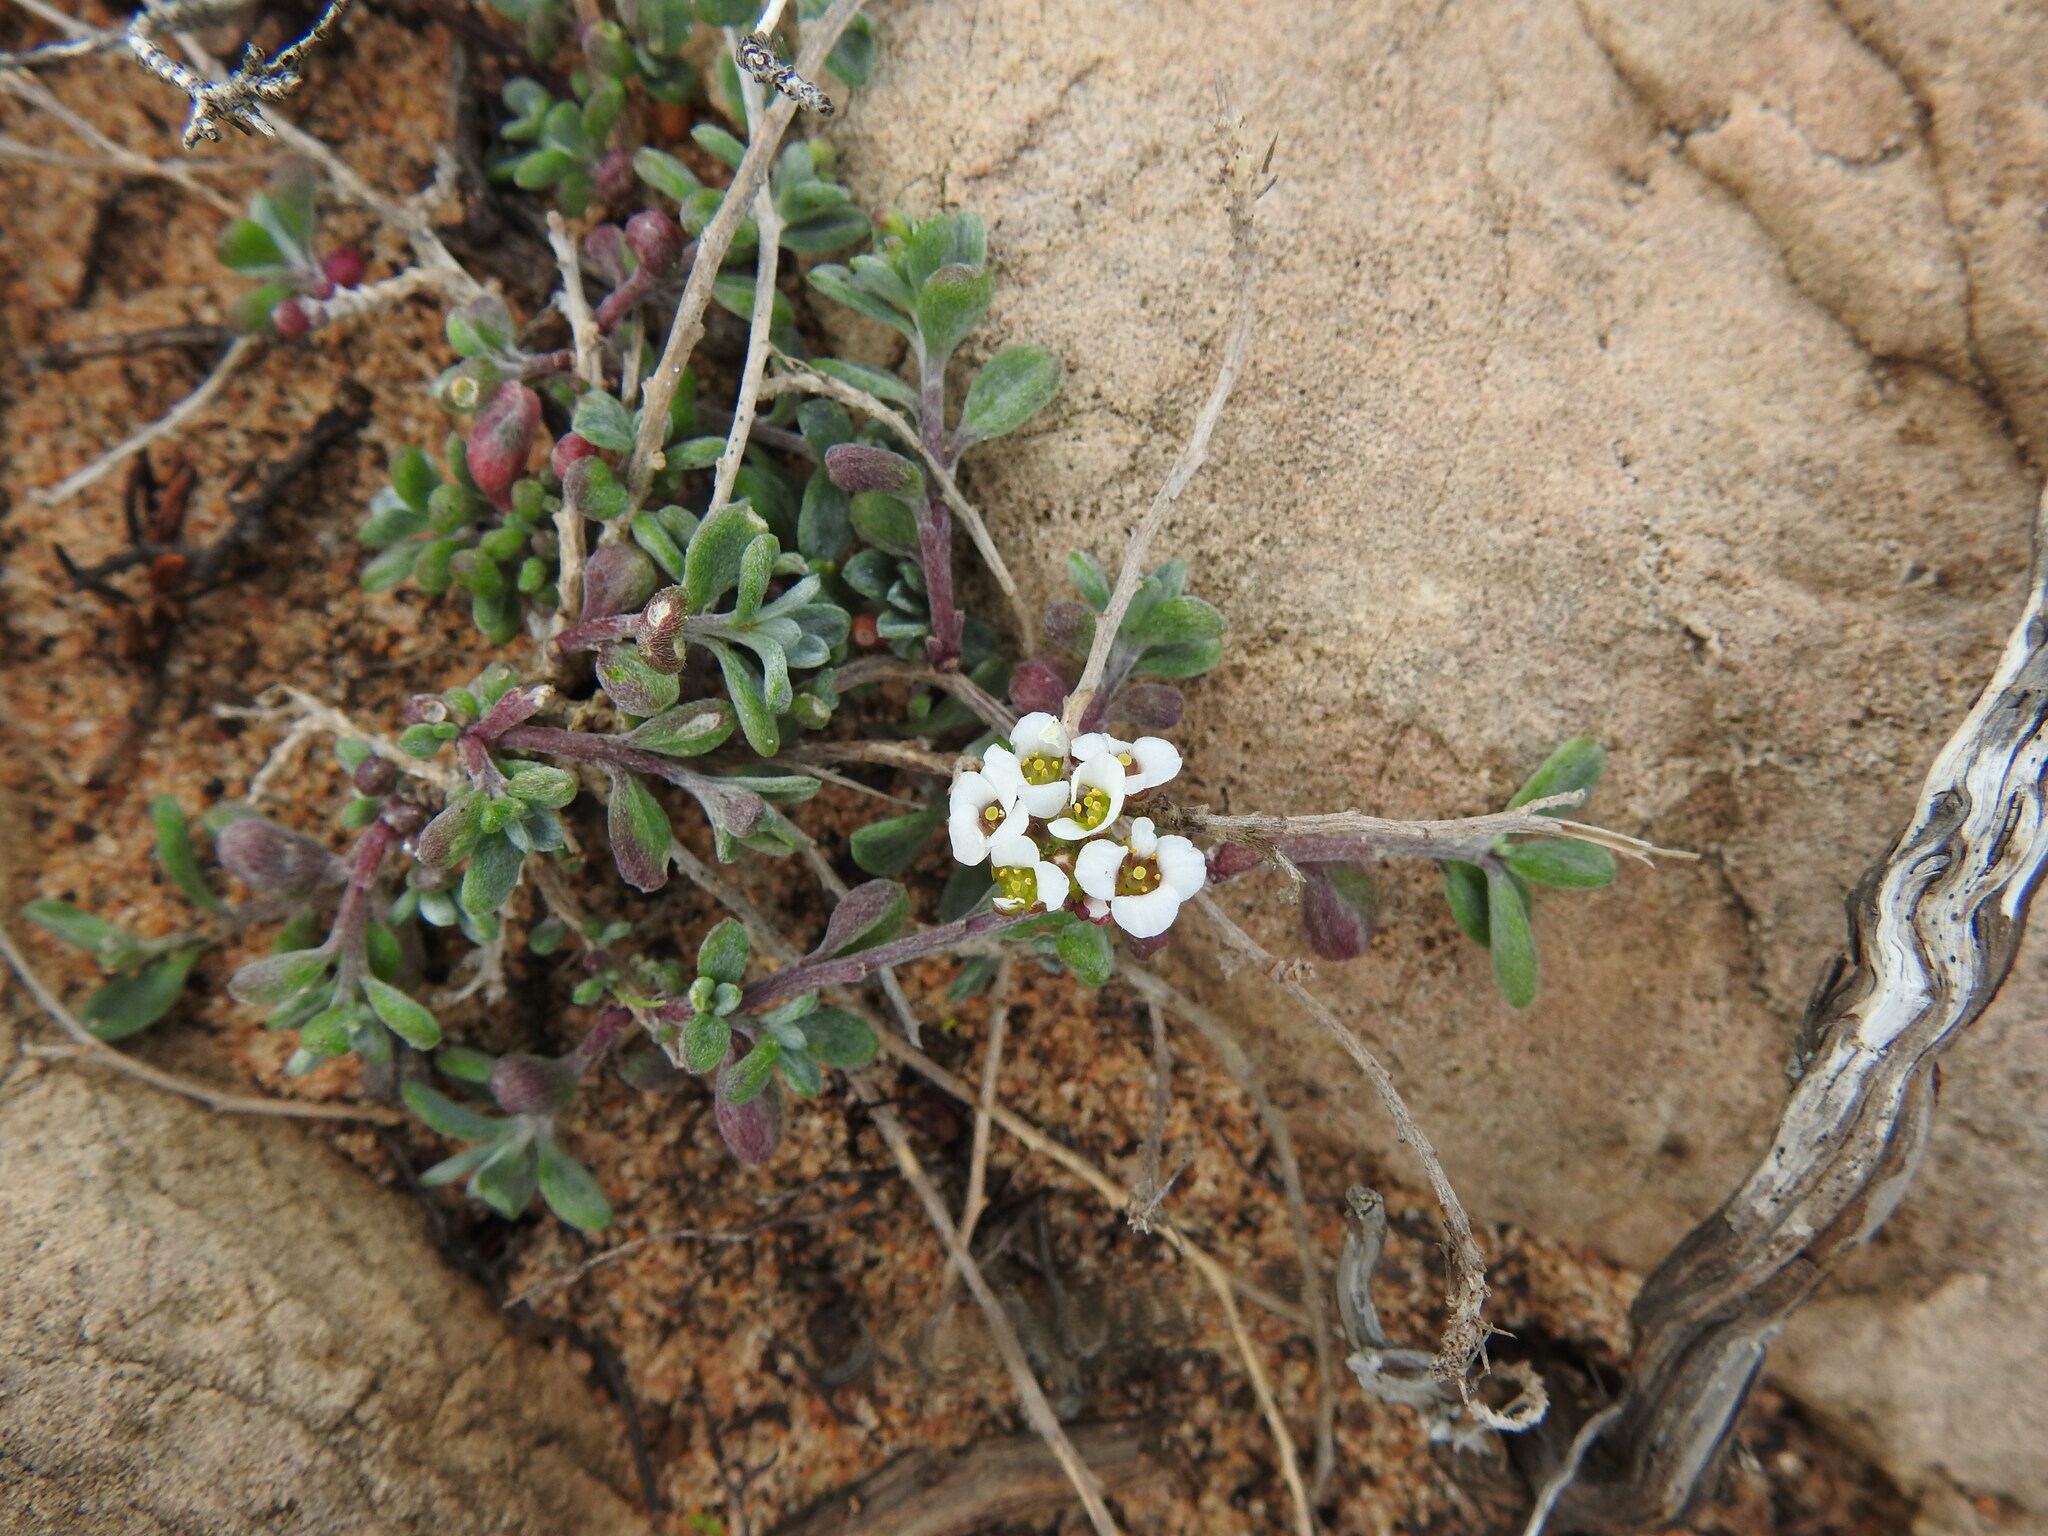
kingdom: Plantae
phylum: Tracheophyta
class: Magnoliopsida
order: Brassicales
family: Brassicaceae
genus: Lobularia
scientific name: Lobularia maritima
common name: Sweet alison
